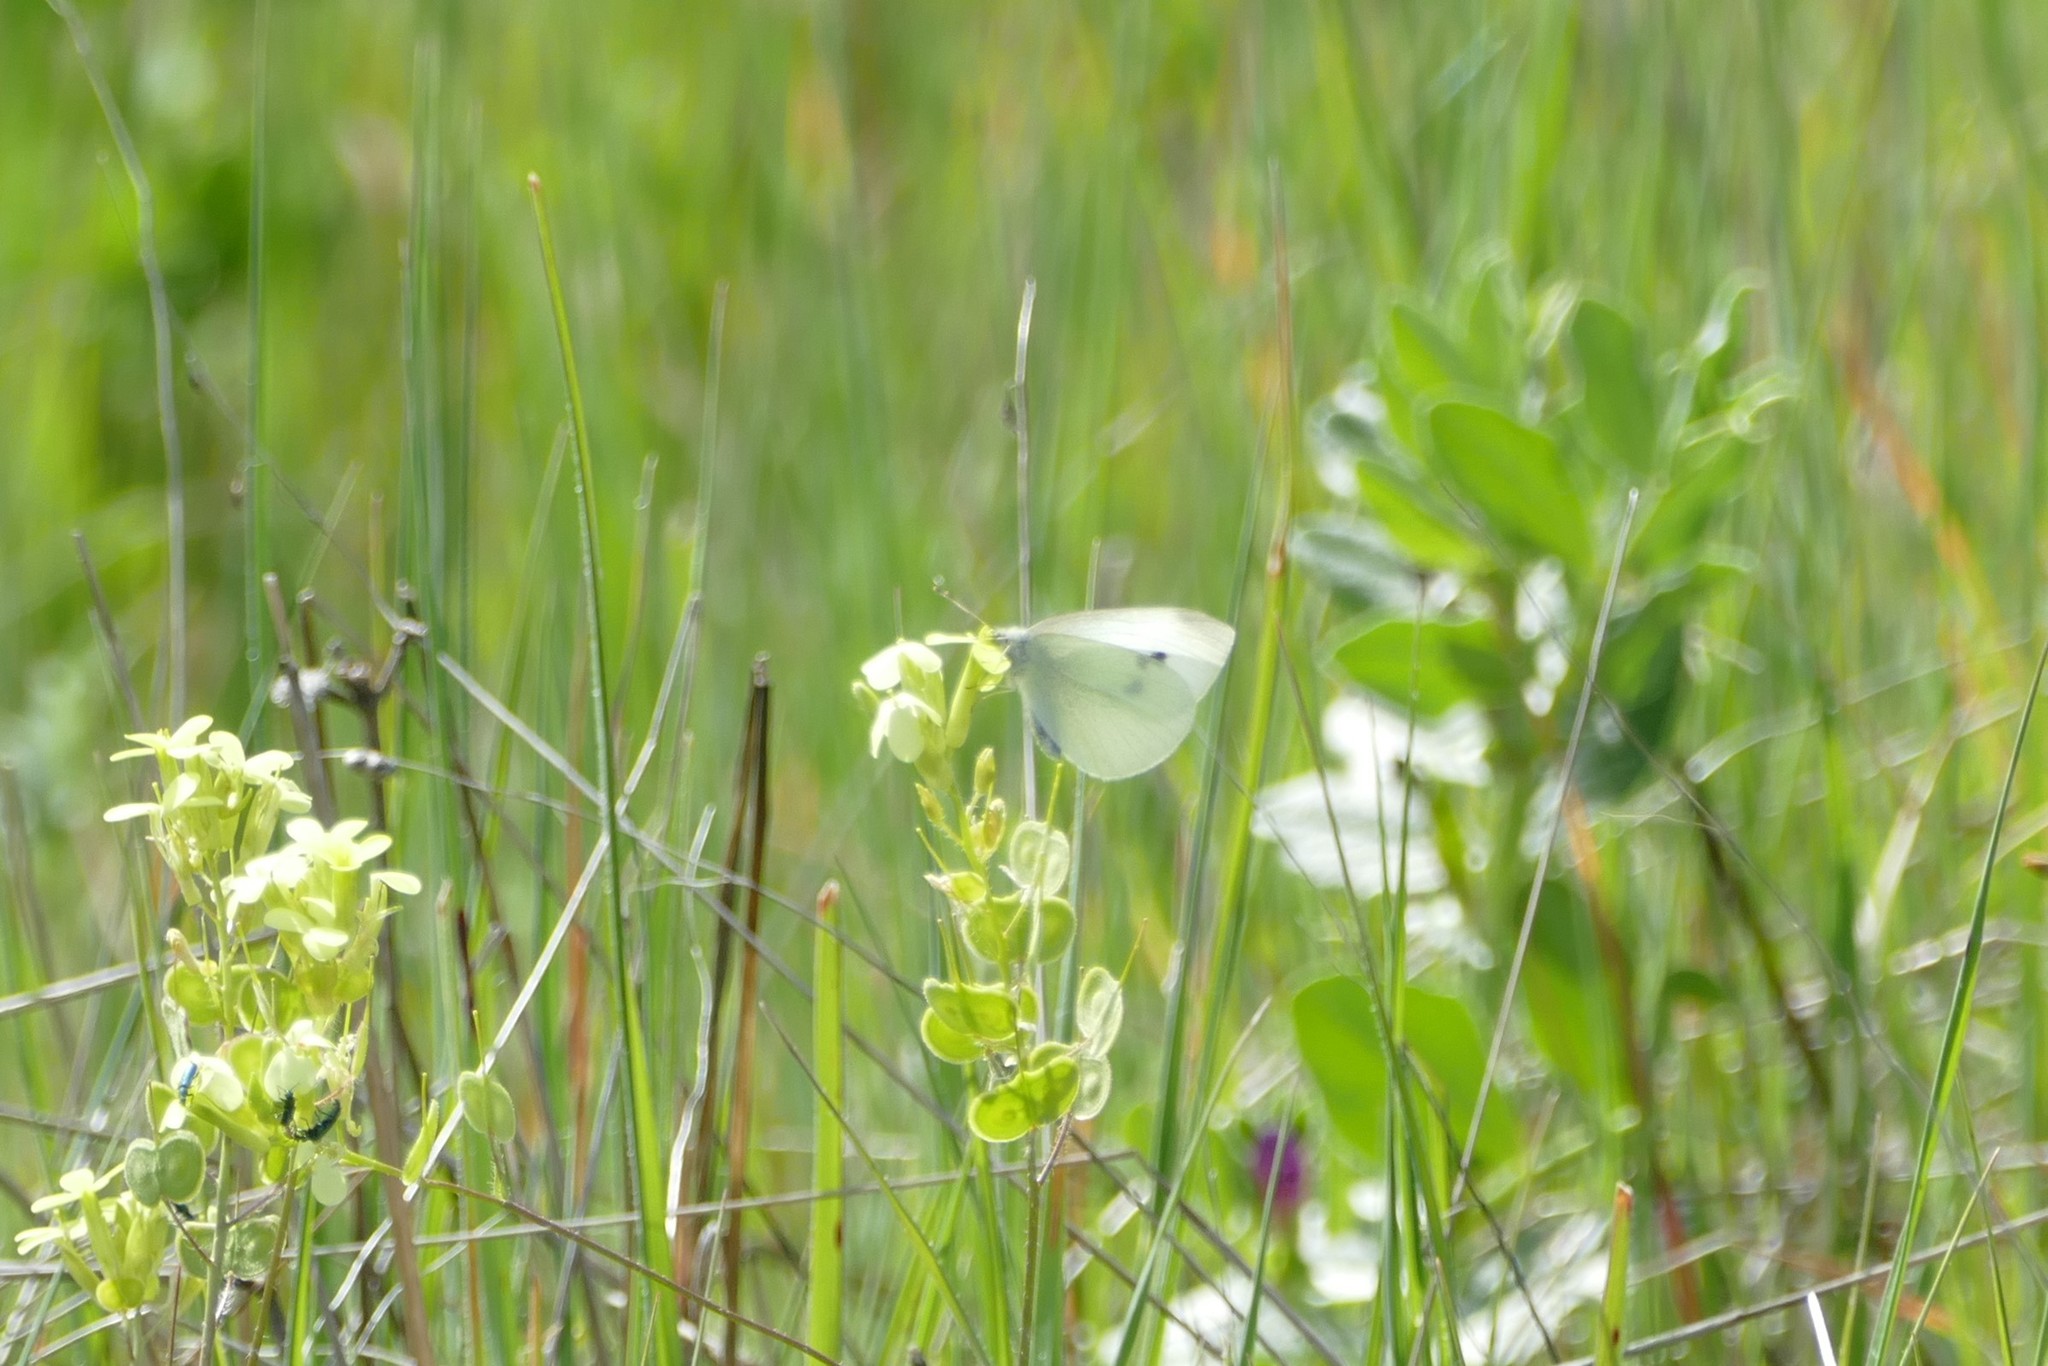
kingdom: Animalia
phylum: Arthropoda
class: Insecta
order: Lepidoptera
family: Pieridae
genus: Pieris
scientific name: Pieris rapae
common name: Small white
